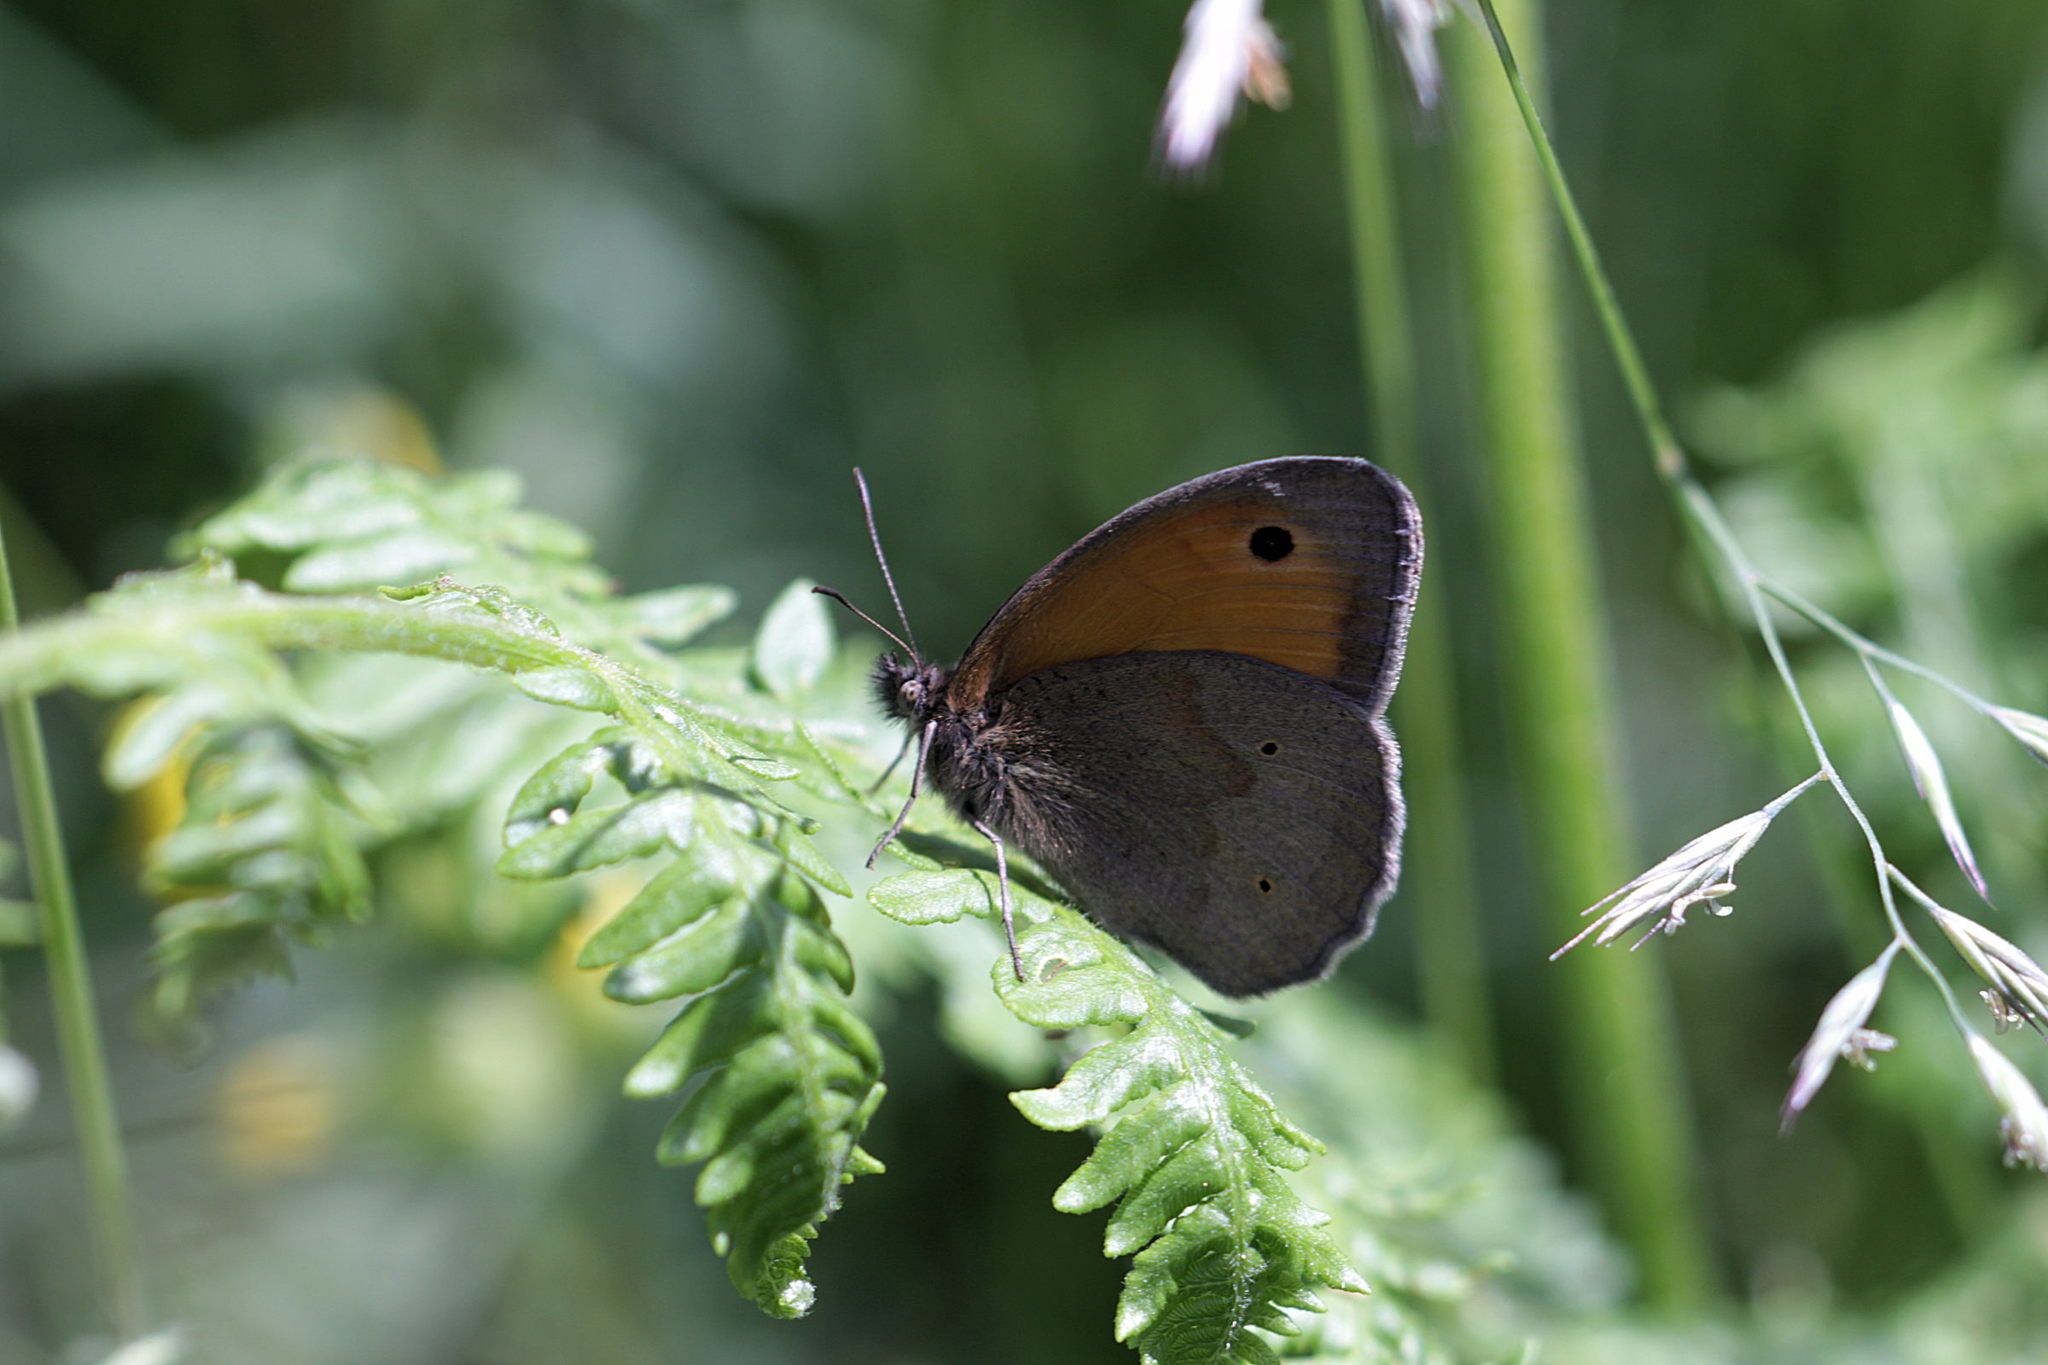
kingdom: Animalia
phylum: Arthropoda
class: Insecta
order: Lepidoptera
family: Nymphalidae
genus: Maniola
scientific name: Maniola jurtina
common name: Meadow brown
